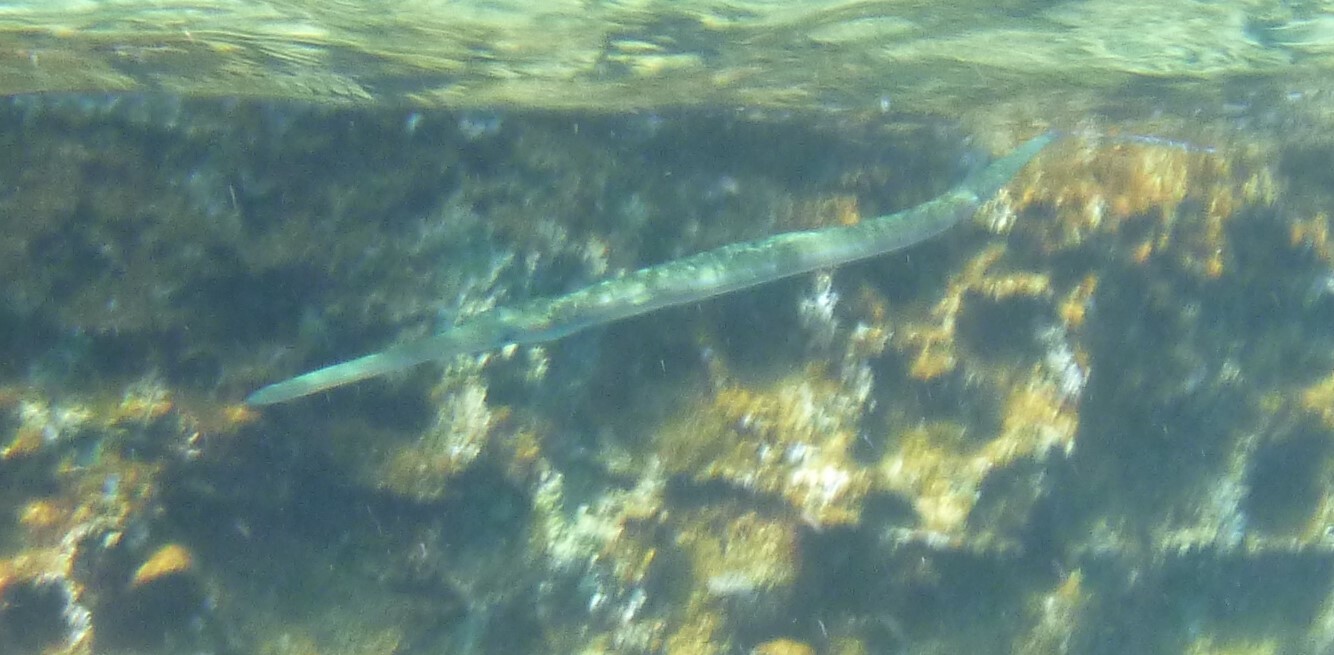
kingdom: Animalia
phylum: Chordata
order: Syngnathiformes
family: Fistulariidae
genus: Fistularia
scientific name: Fistularia commersonii
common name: Bluespotted cornetfish
